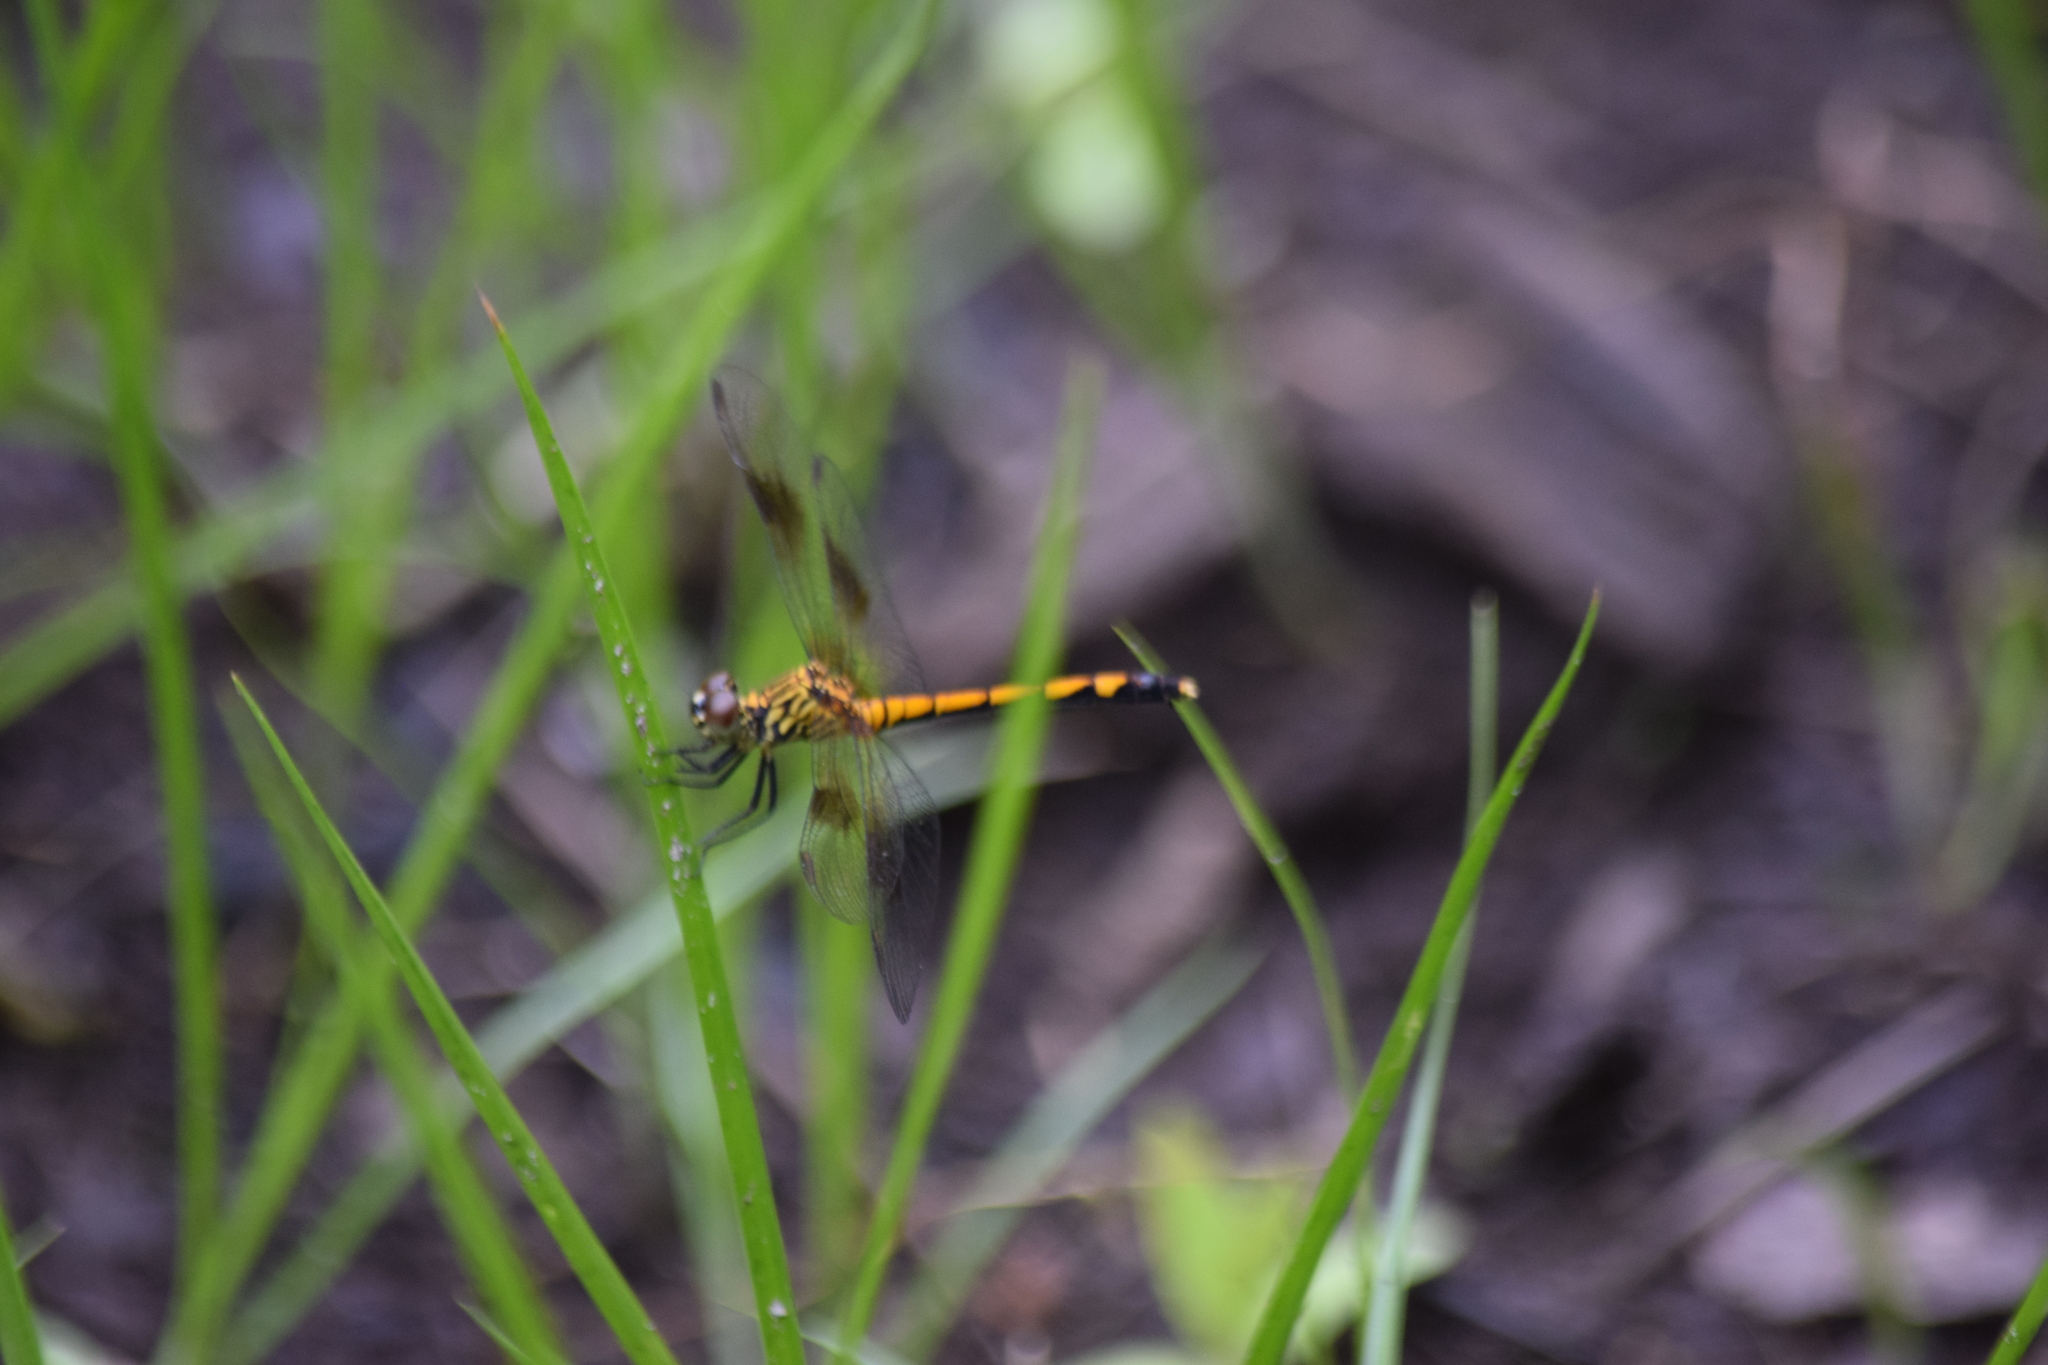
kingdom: Animalia
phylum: Arthropoda
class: Insecta
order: Odonata
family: Libellulidae
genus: Erythrodiplax
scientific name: Erythrodiplax berenice
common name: Seaside dragonlet
